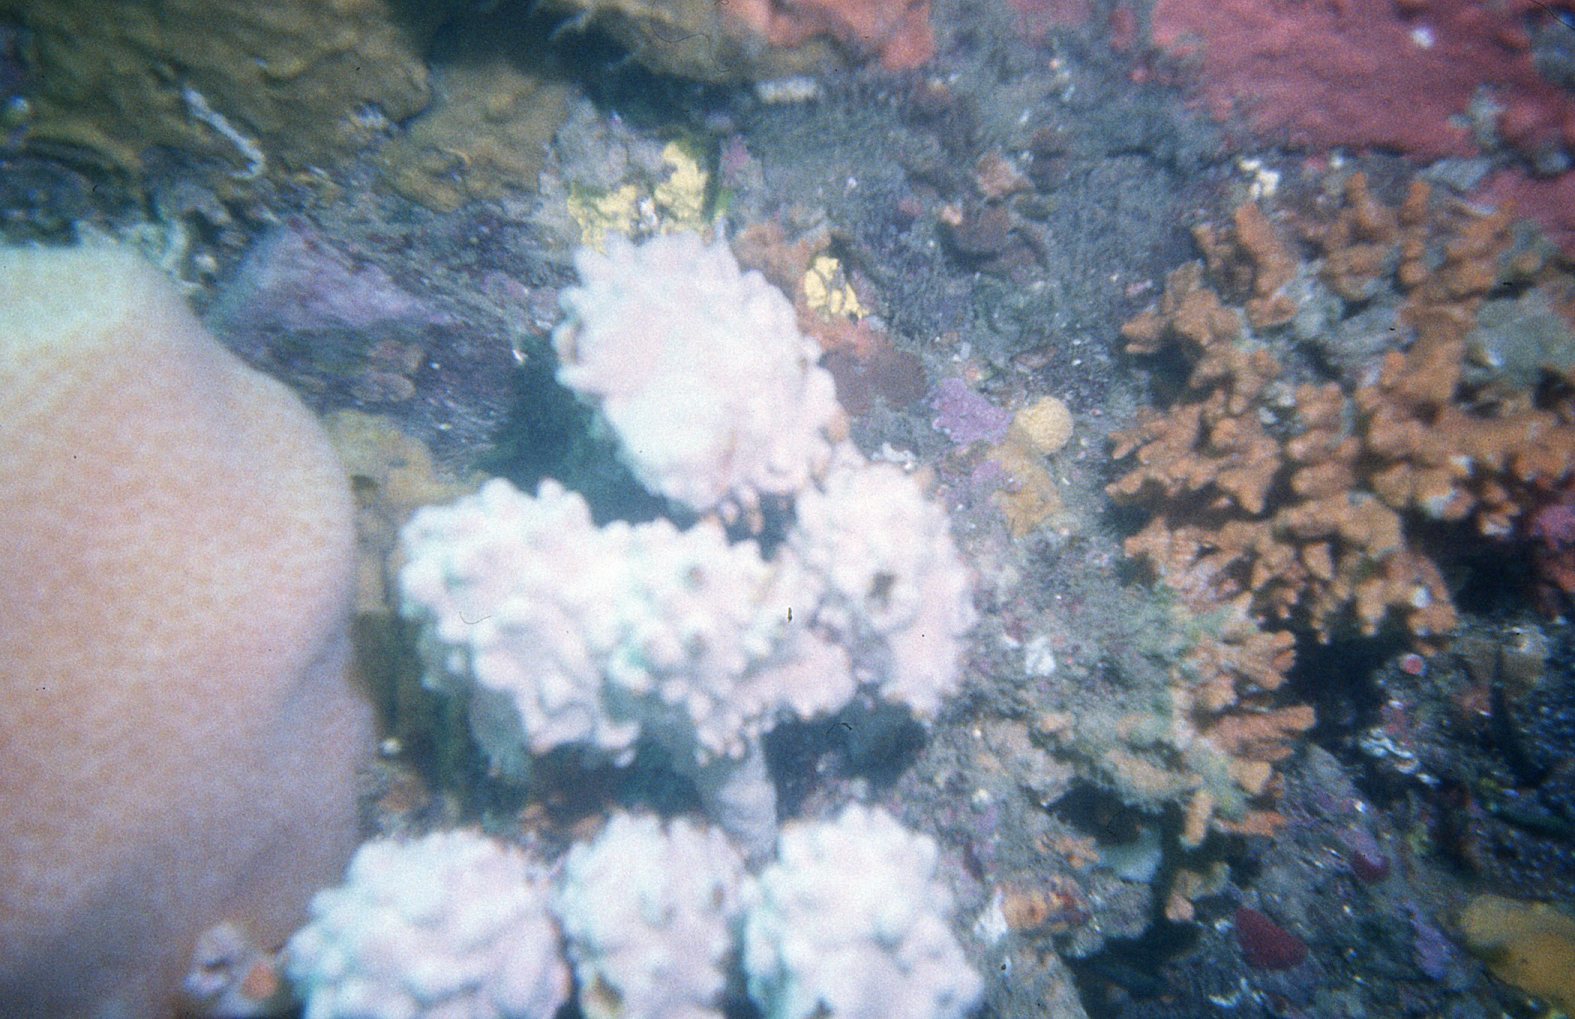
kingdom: Animalia
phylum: Chordata
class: Ascidiacea
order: Stolidobranchia
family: Pyuridae
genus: Pyura
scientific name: Pyura spinifera
